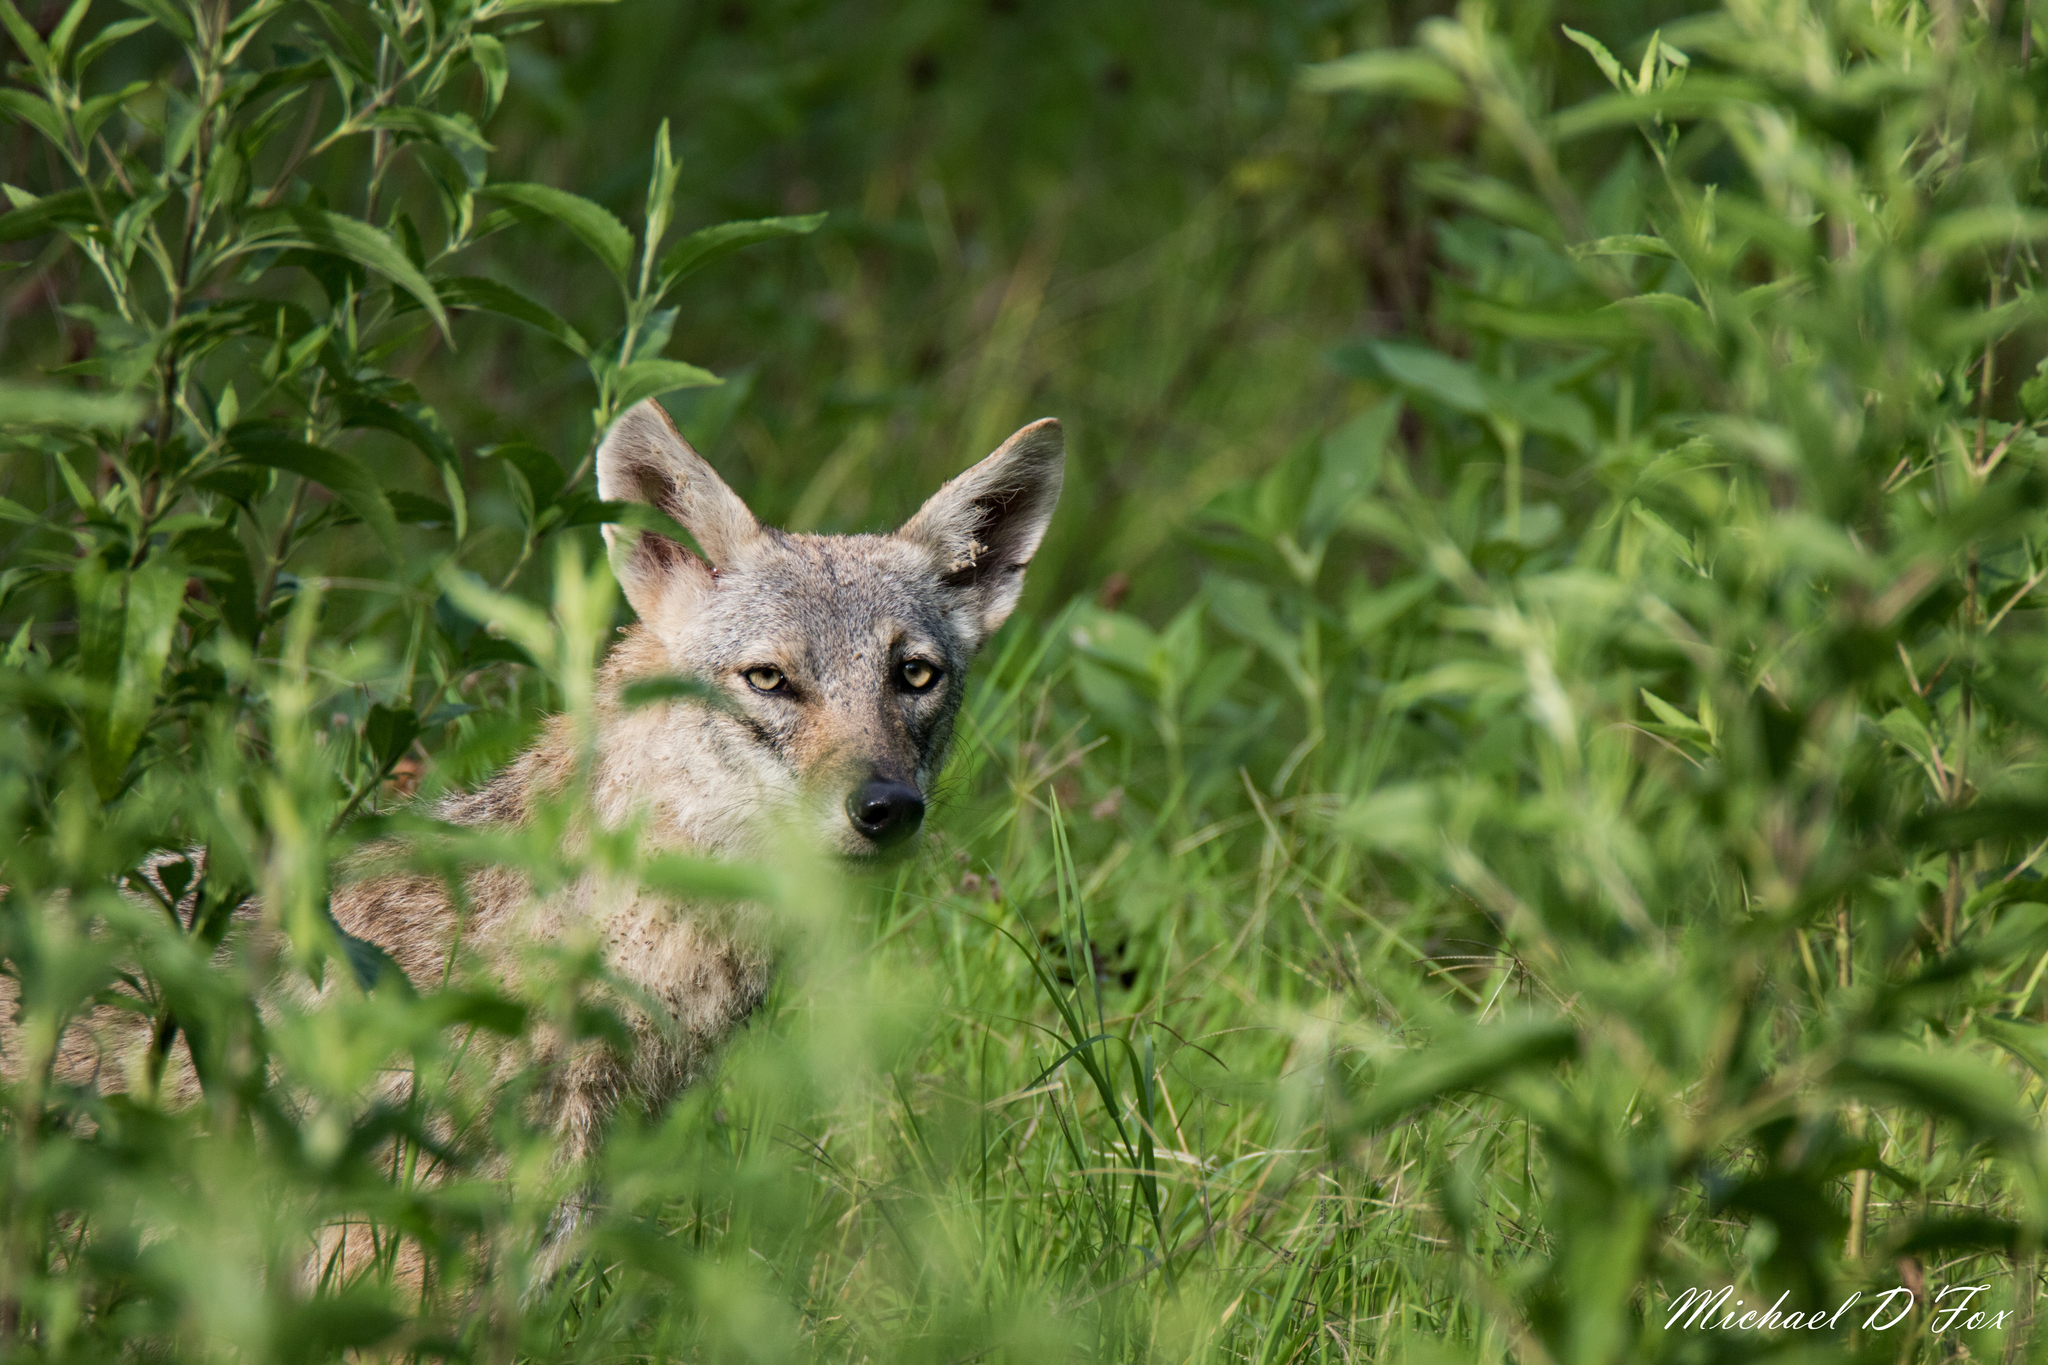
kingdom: Animalia
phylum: Chordata
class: Mammalia
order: Carnivora
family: Canidae
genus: Canis
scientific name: Canis latrans
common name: Coyote
